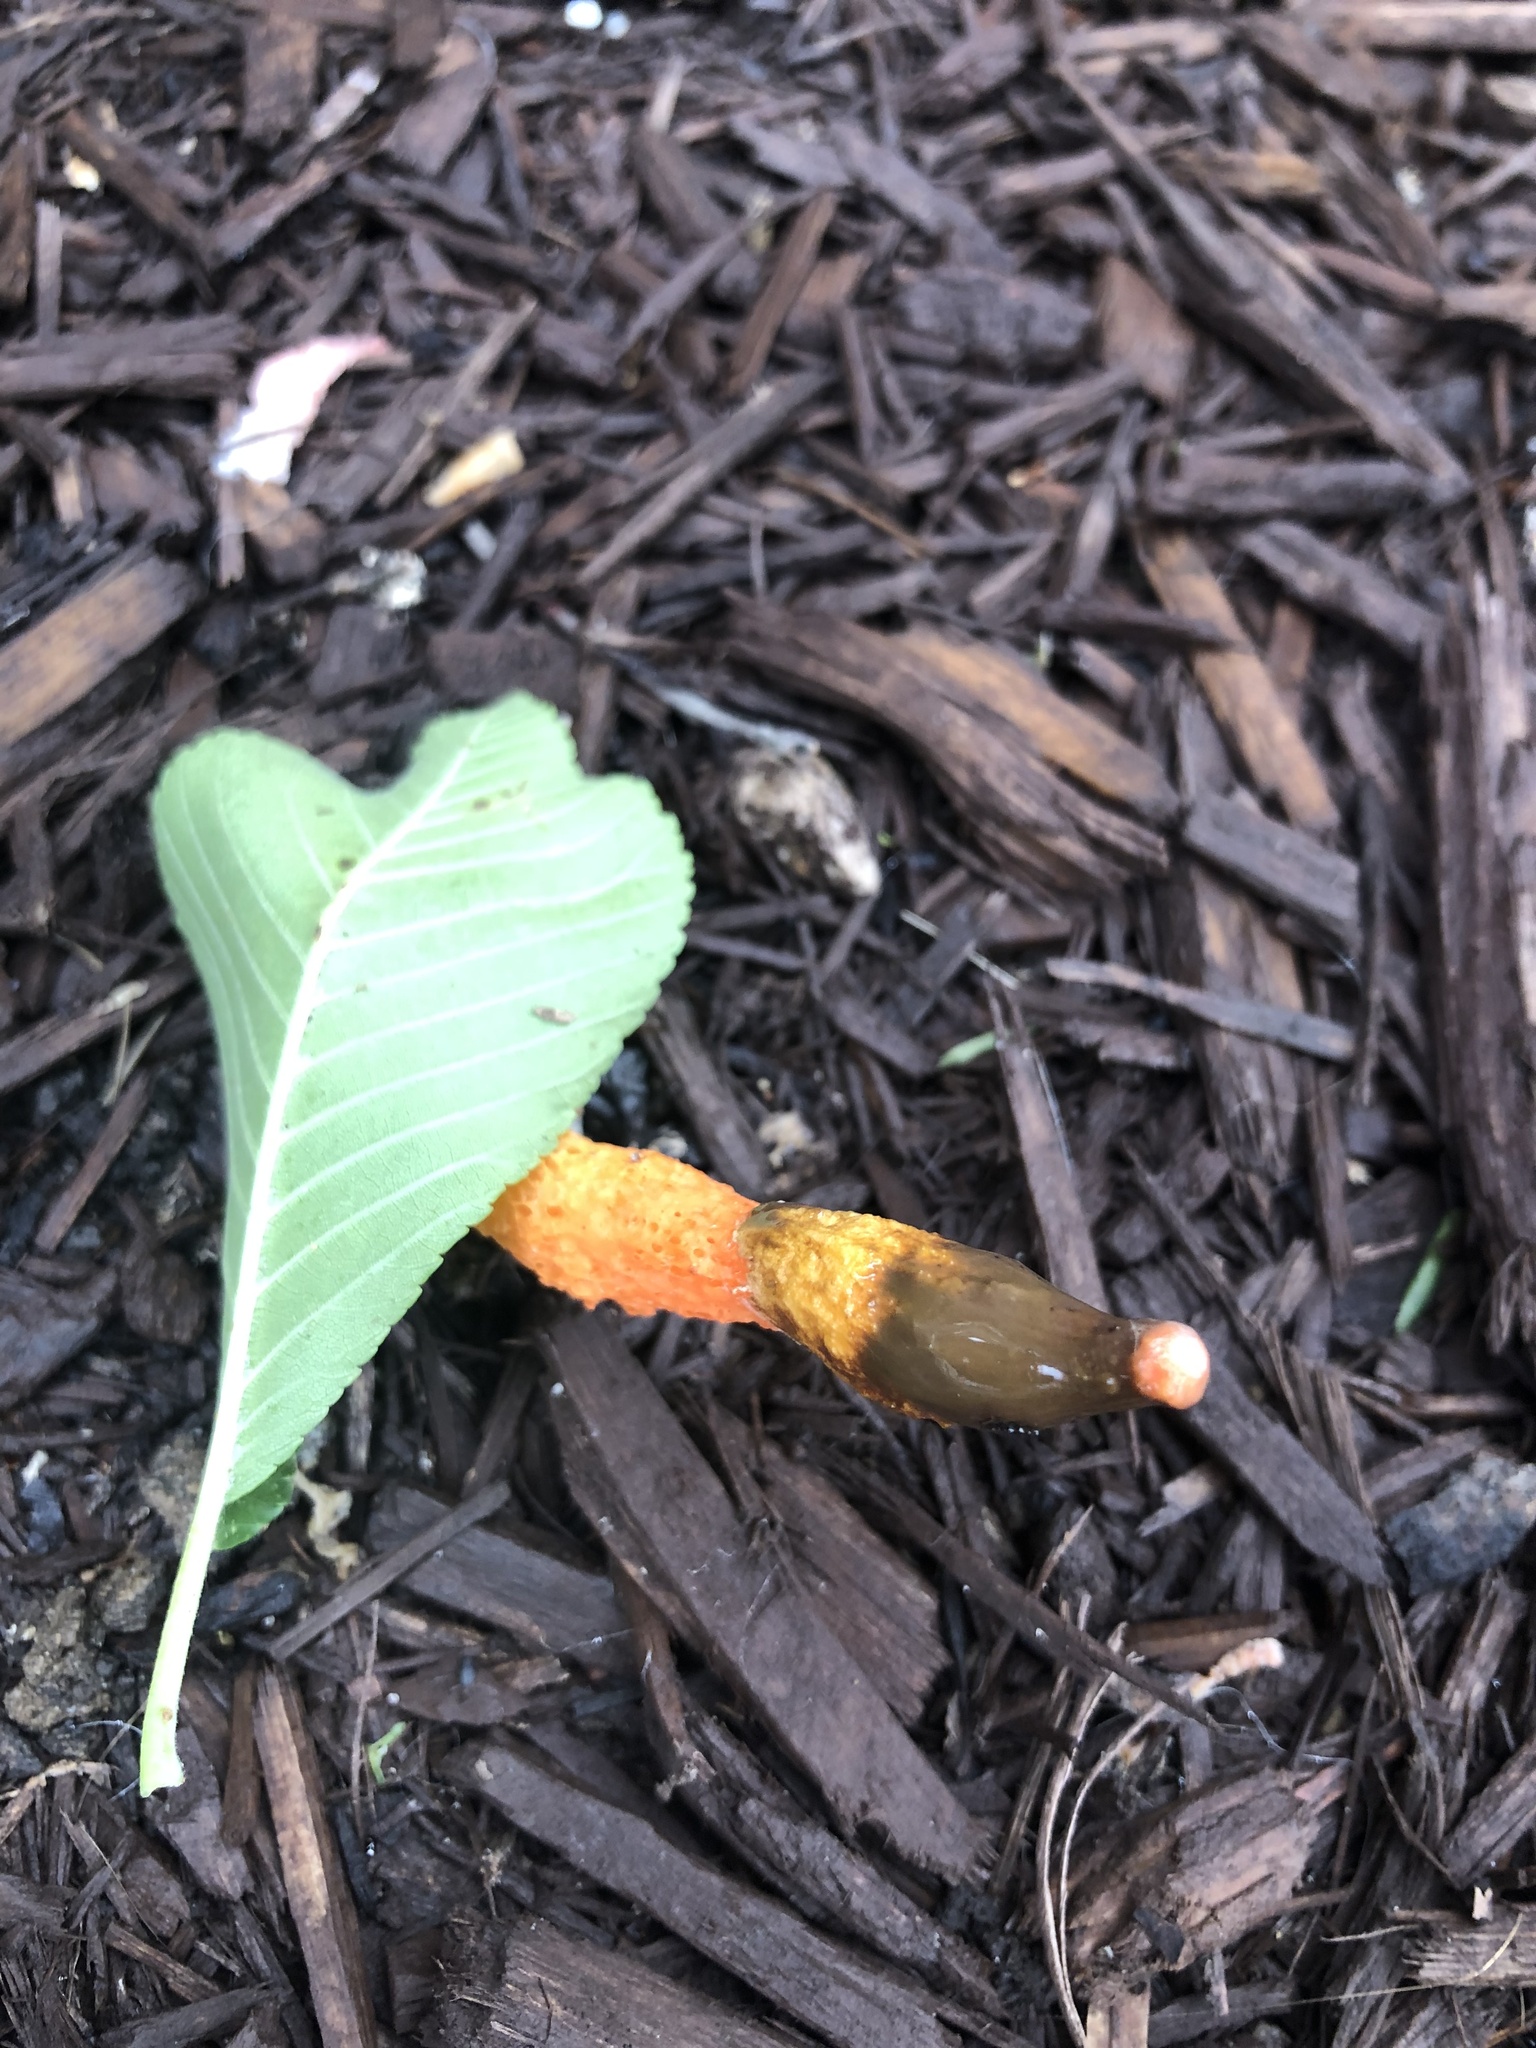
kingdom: Fungi
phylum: Basidiomycota
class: Agaricomycetes
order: Phallales
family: Phallaceae
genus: Phallus
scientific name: Phallus rugulosus
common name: Wrinkly stinkhorn
